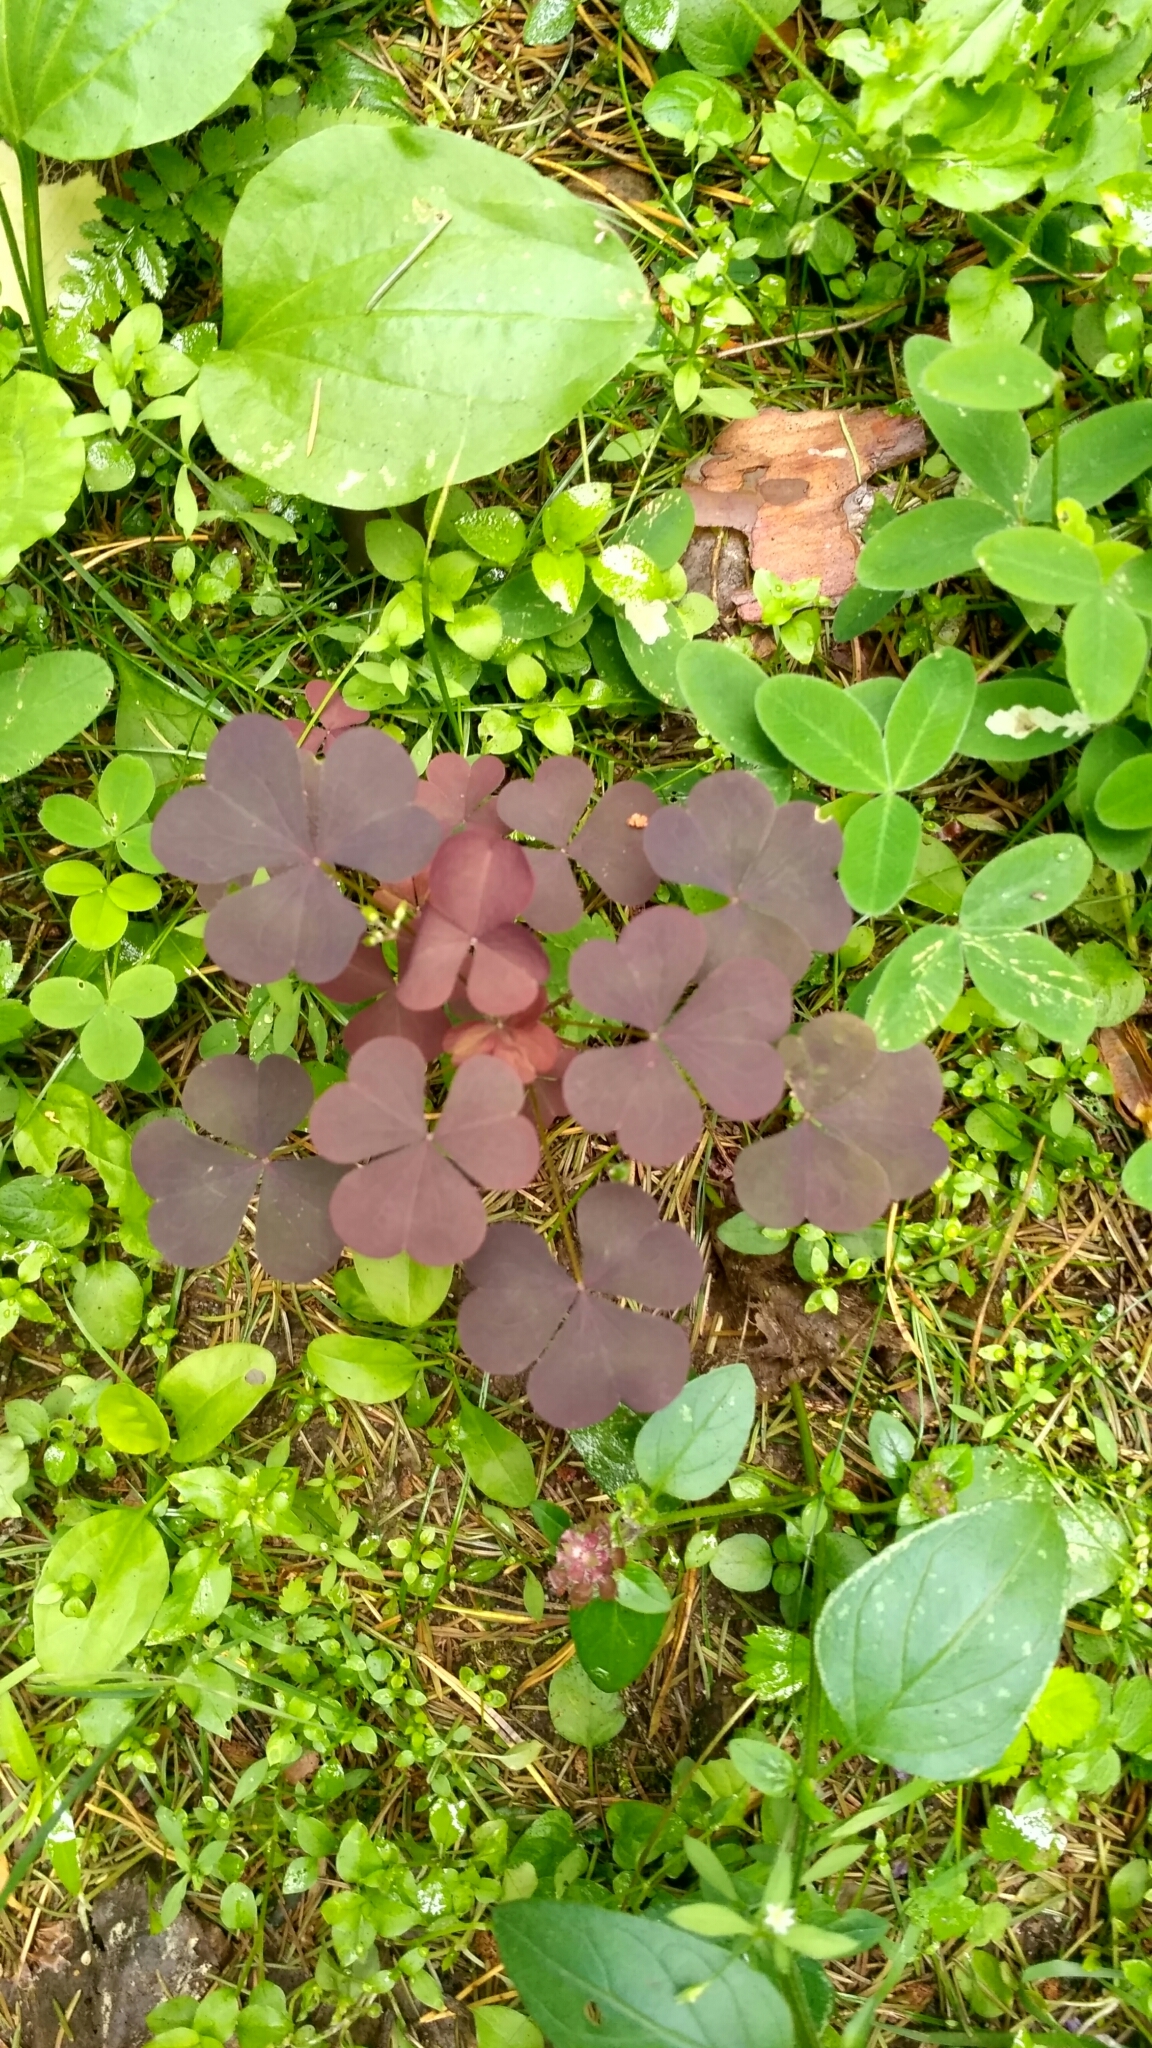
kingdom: Plantae
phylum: Tracheophyta
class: Magnoliopsida
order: Oxalidales
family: Oxalidaceae
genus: Oxalis
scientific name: Oxalis stricta
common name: Upright yellow-sorrel
